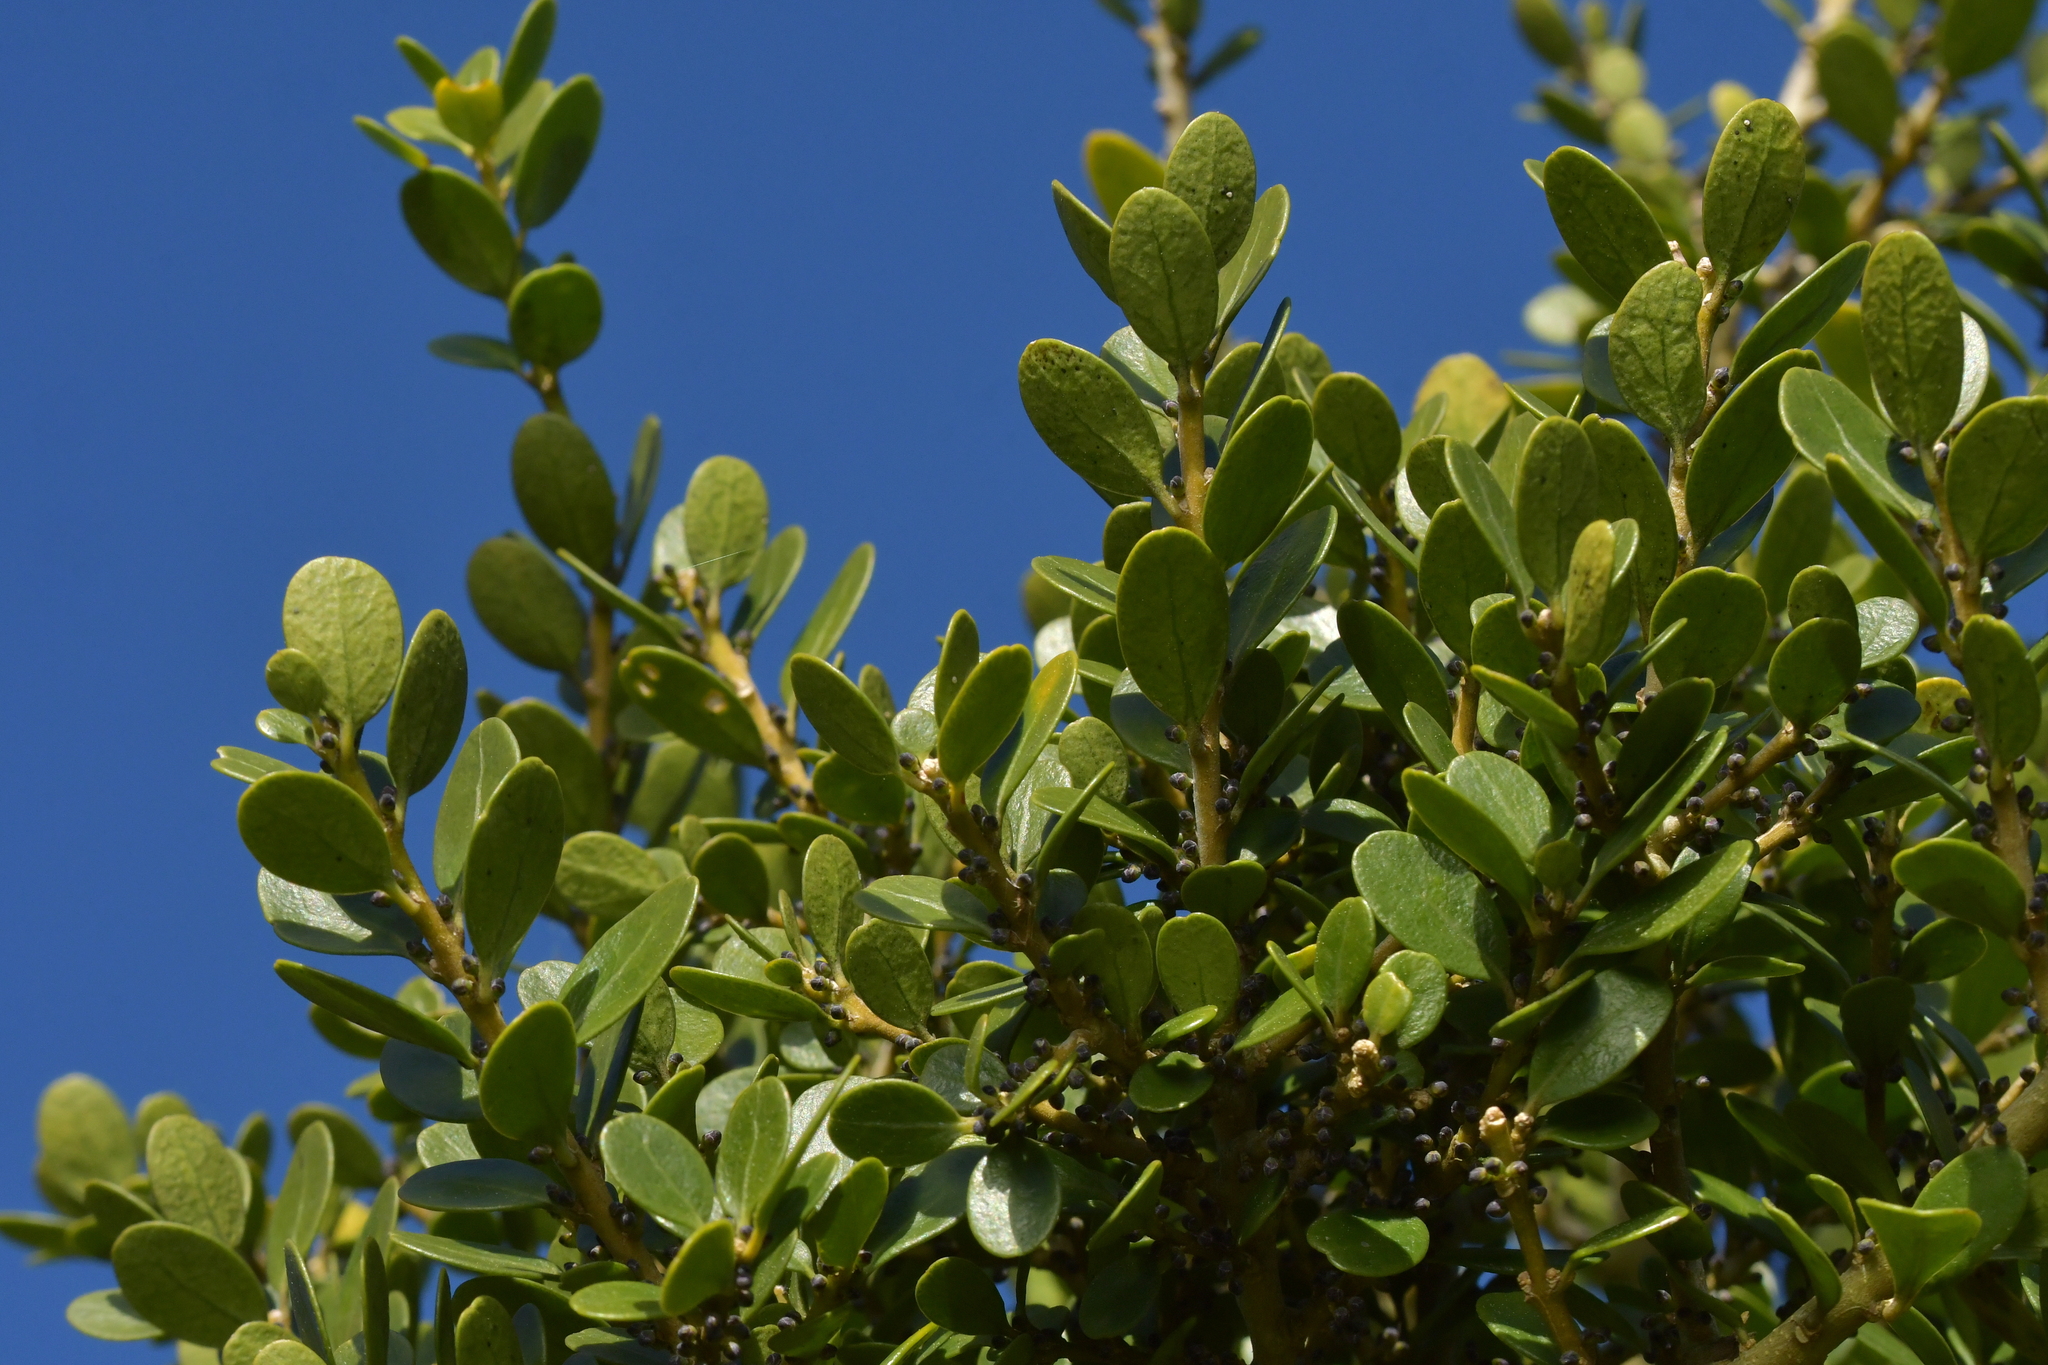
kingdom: Plantae
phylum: Tracheophyta
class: Magnoliopsida
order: Malpighiales
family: Violaceae
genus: Melicytus
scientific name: Melicytus orarius
